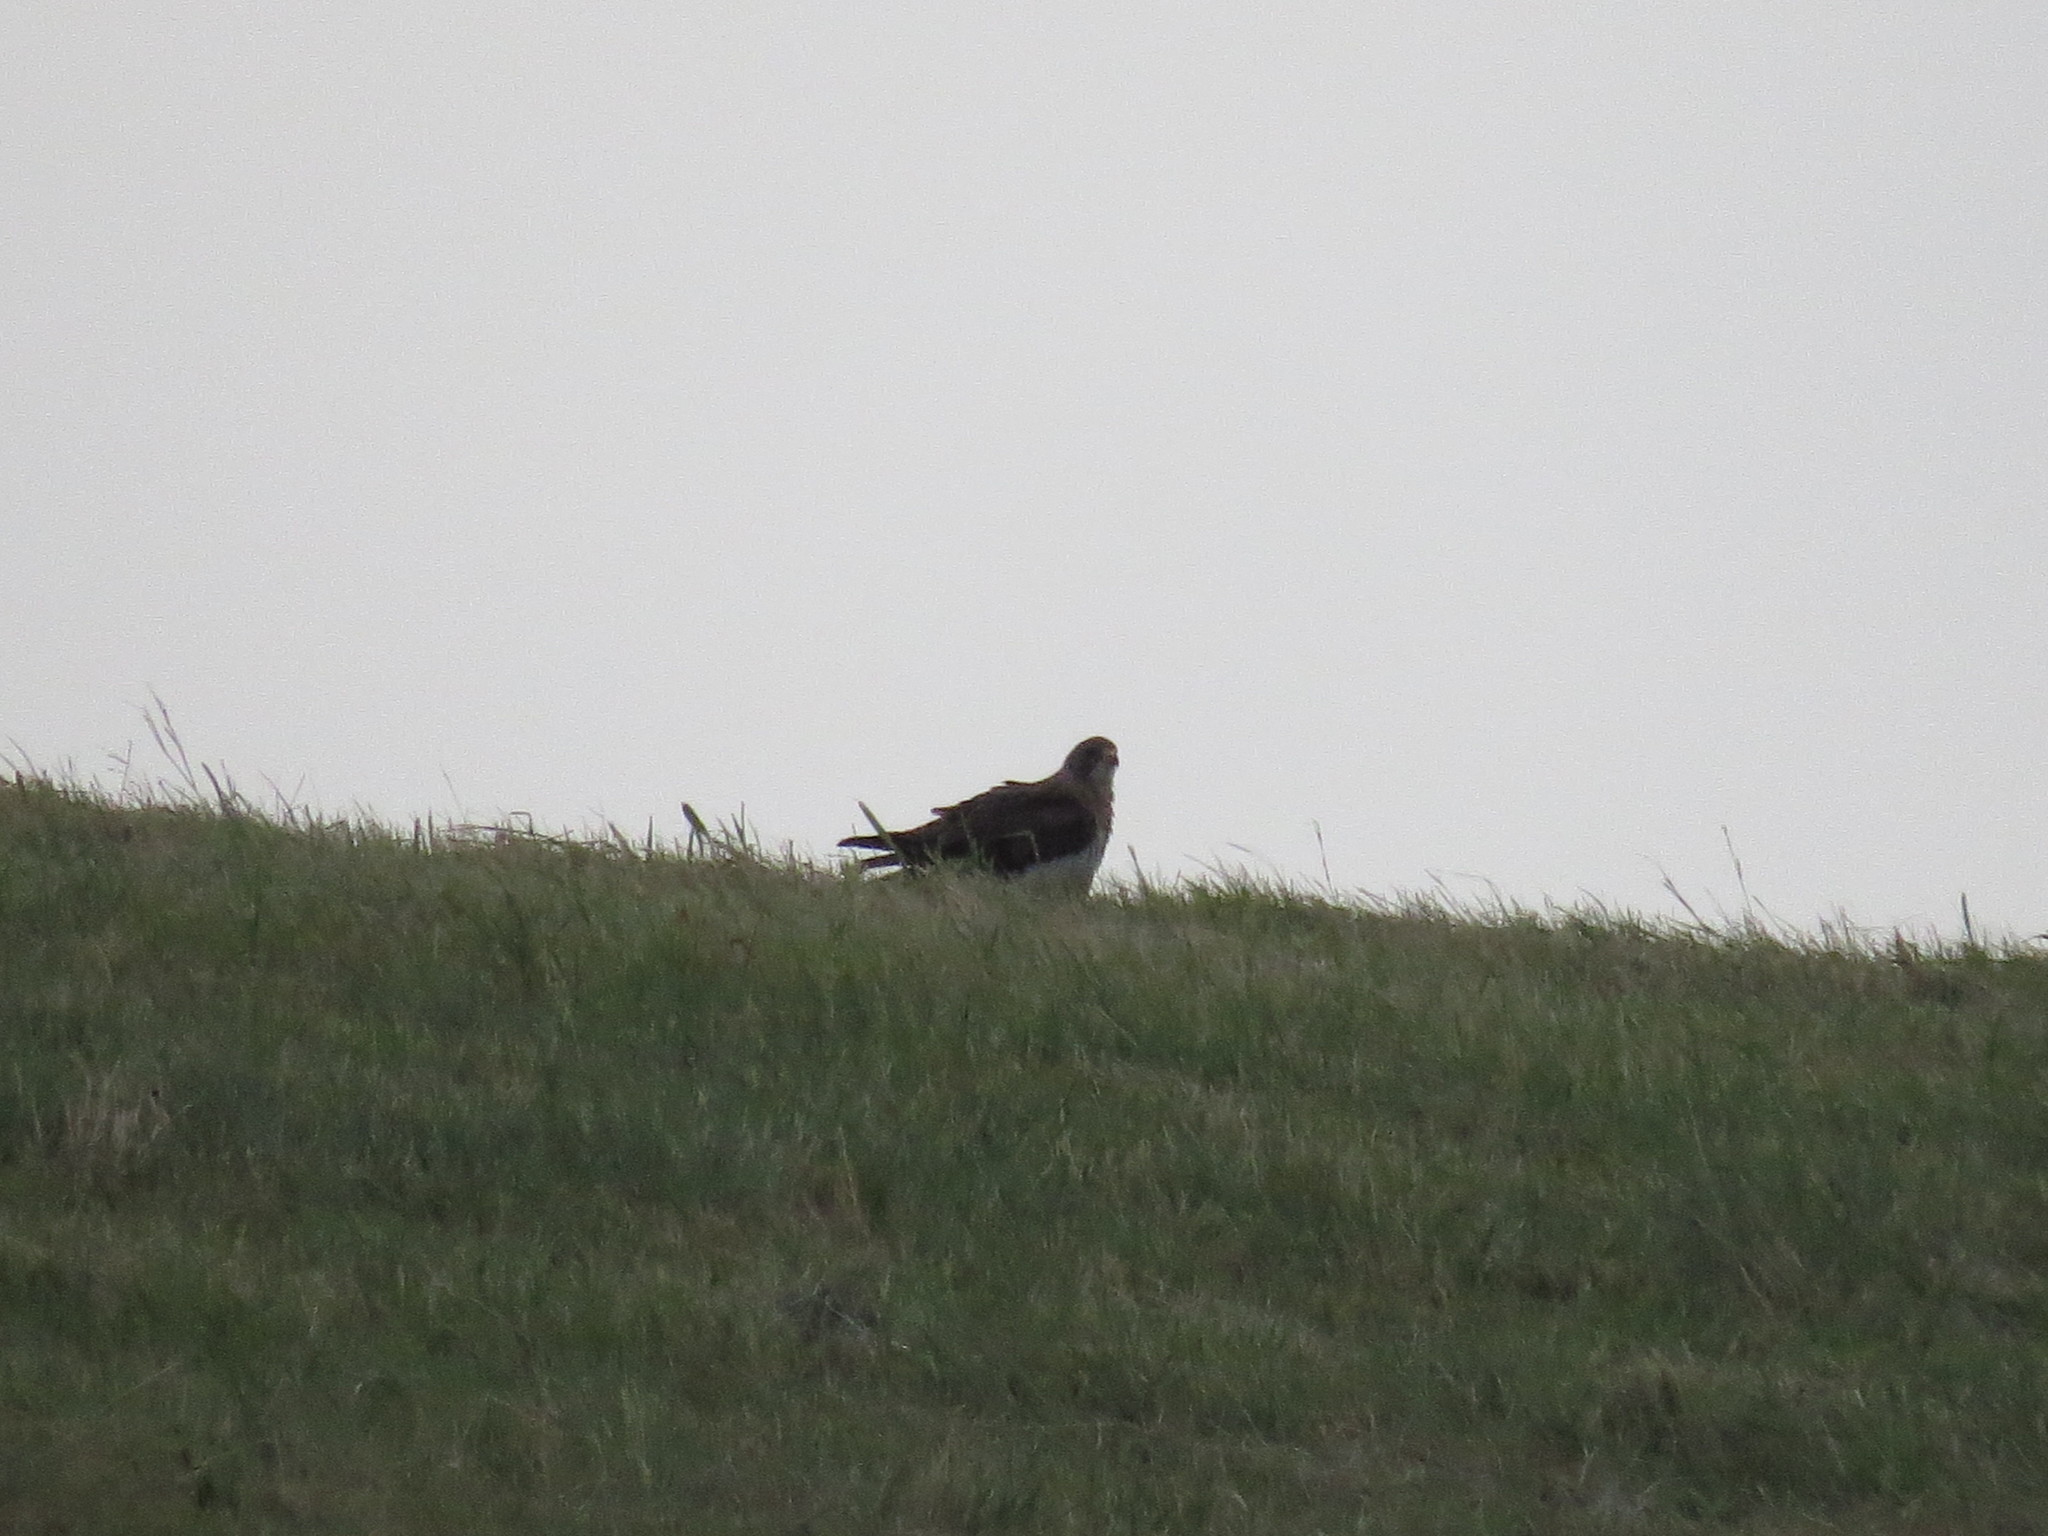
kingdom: Animalia
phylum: Chordata
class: Aves
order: Accipitriformes
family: Accipitridae
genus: Buteo
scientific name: Buteo swainsoni
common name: Swainson's hawk
